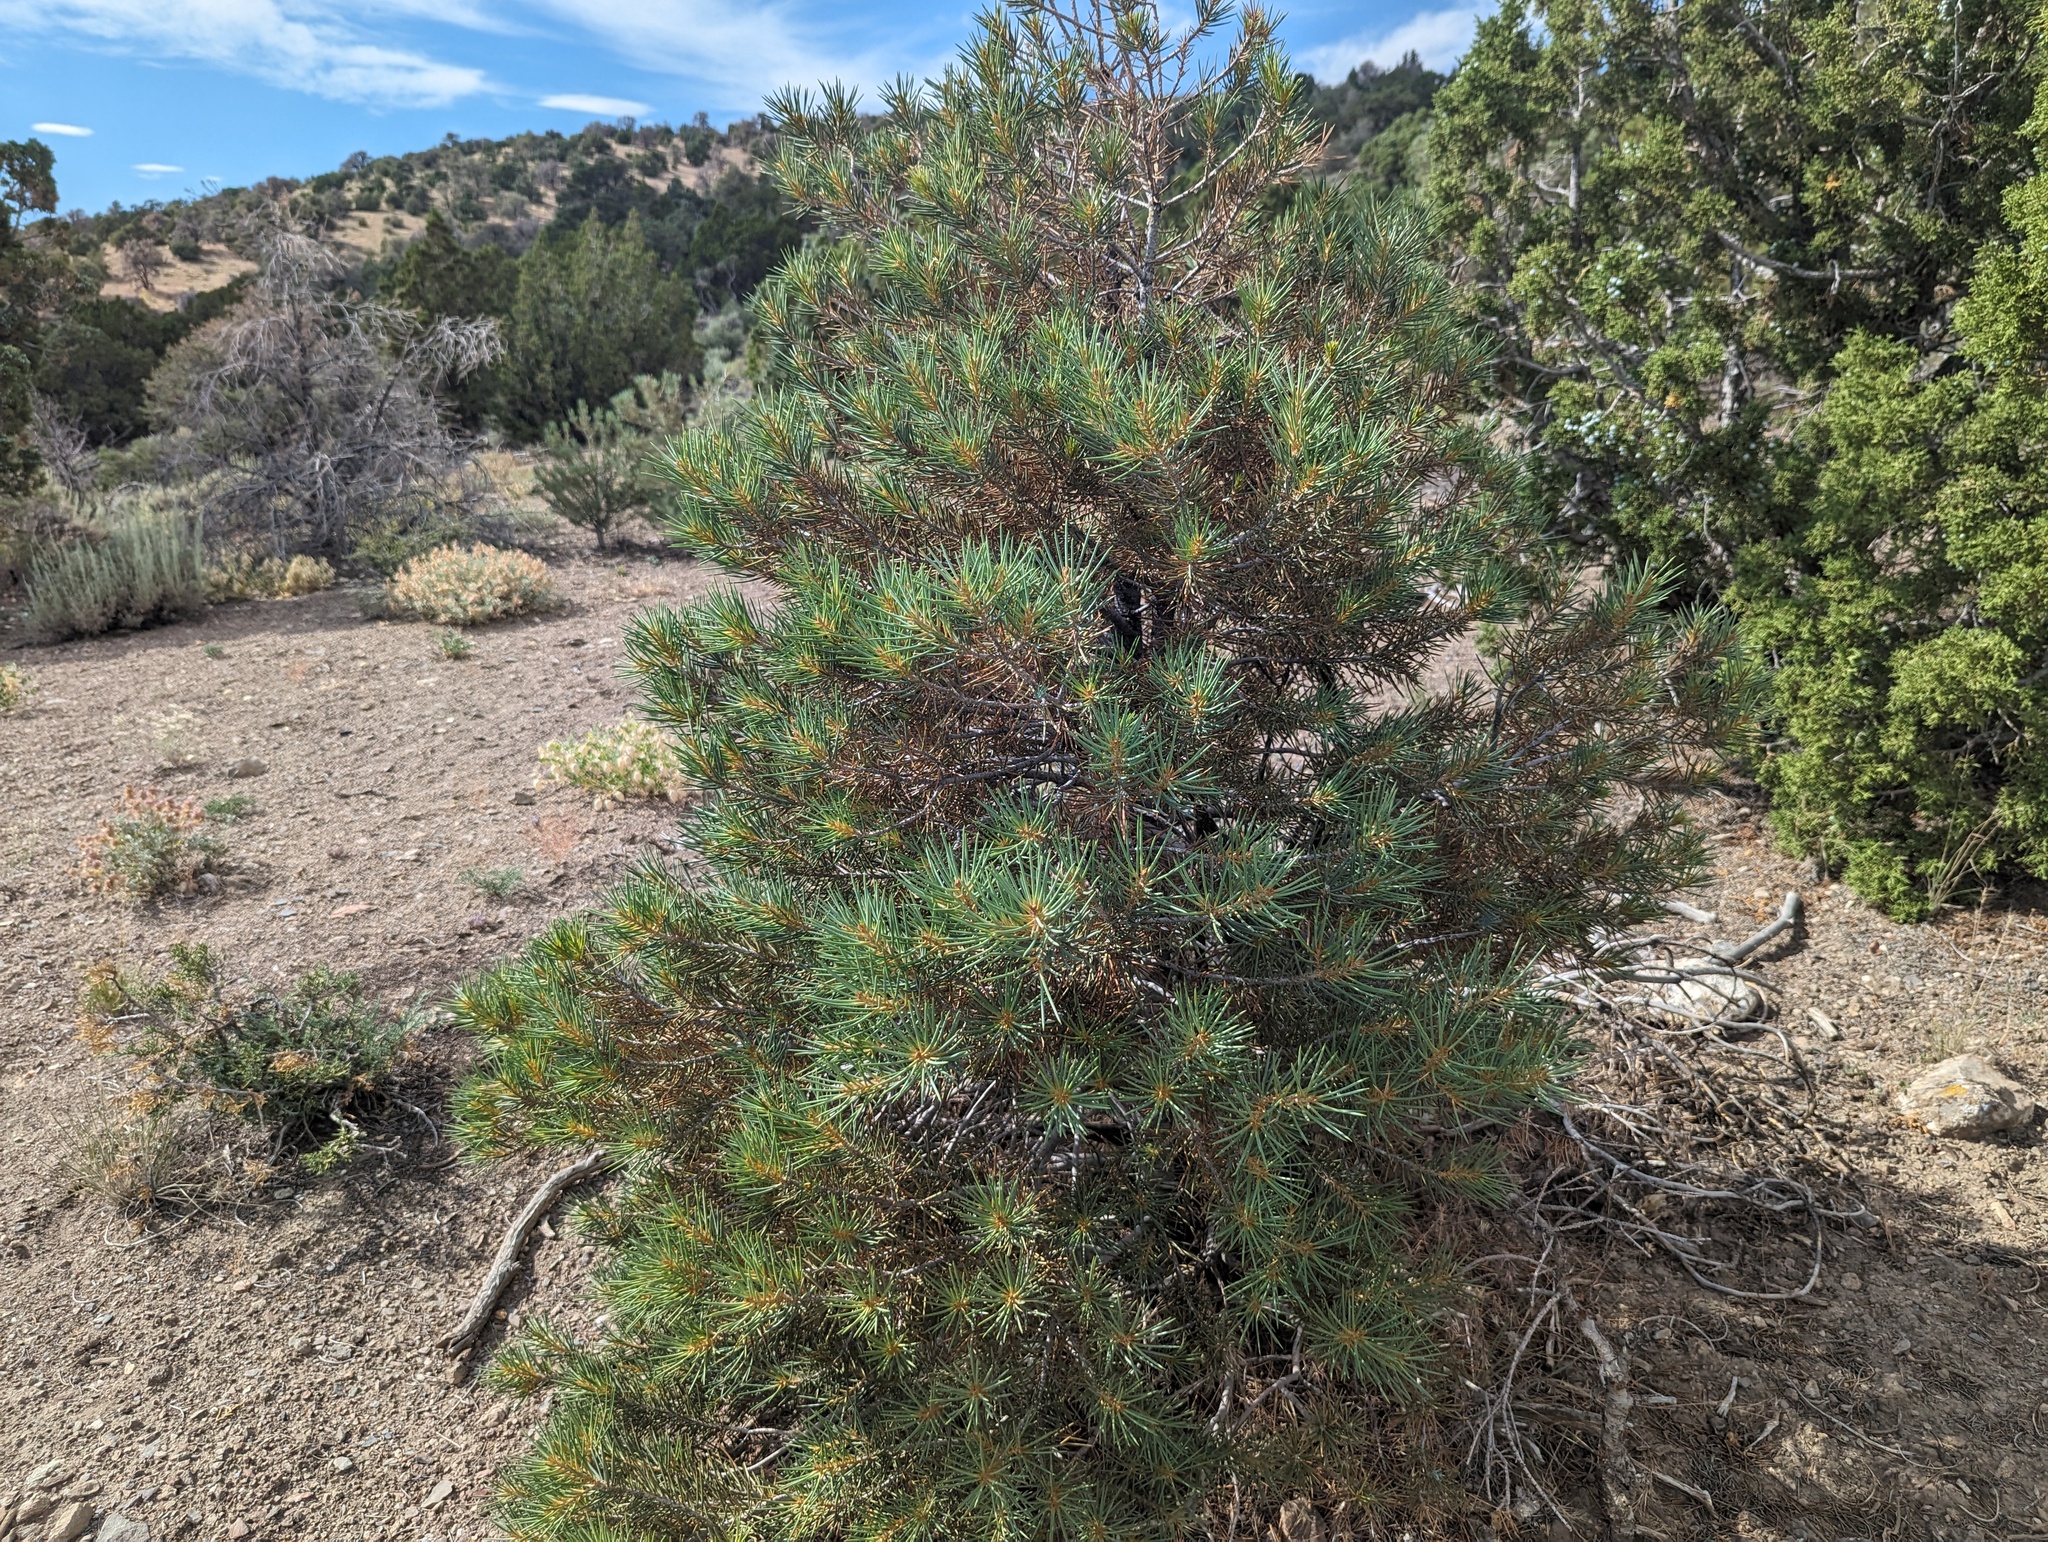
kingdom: Plantae
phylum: Tracheophyta
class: Pinopsida
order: Pinales
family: Pinaceae
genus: Pinus
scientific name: Pinus monophylla
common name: One-leaved nut pine
